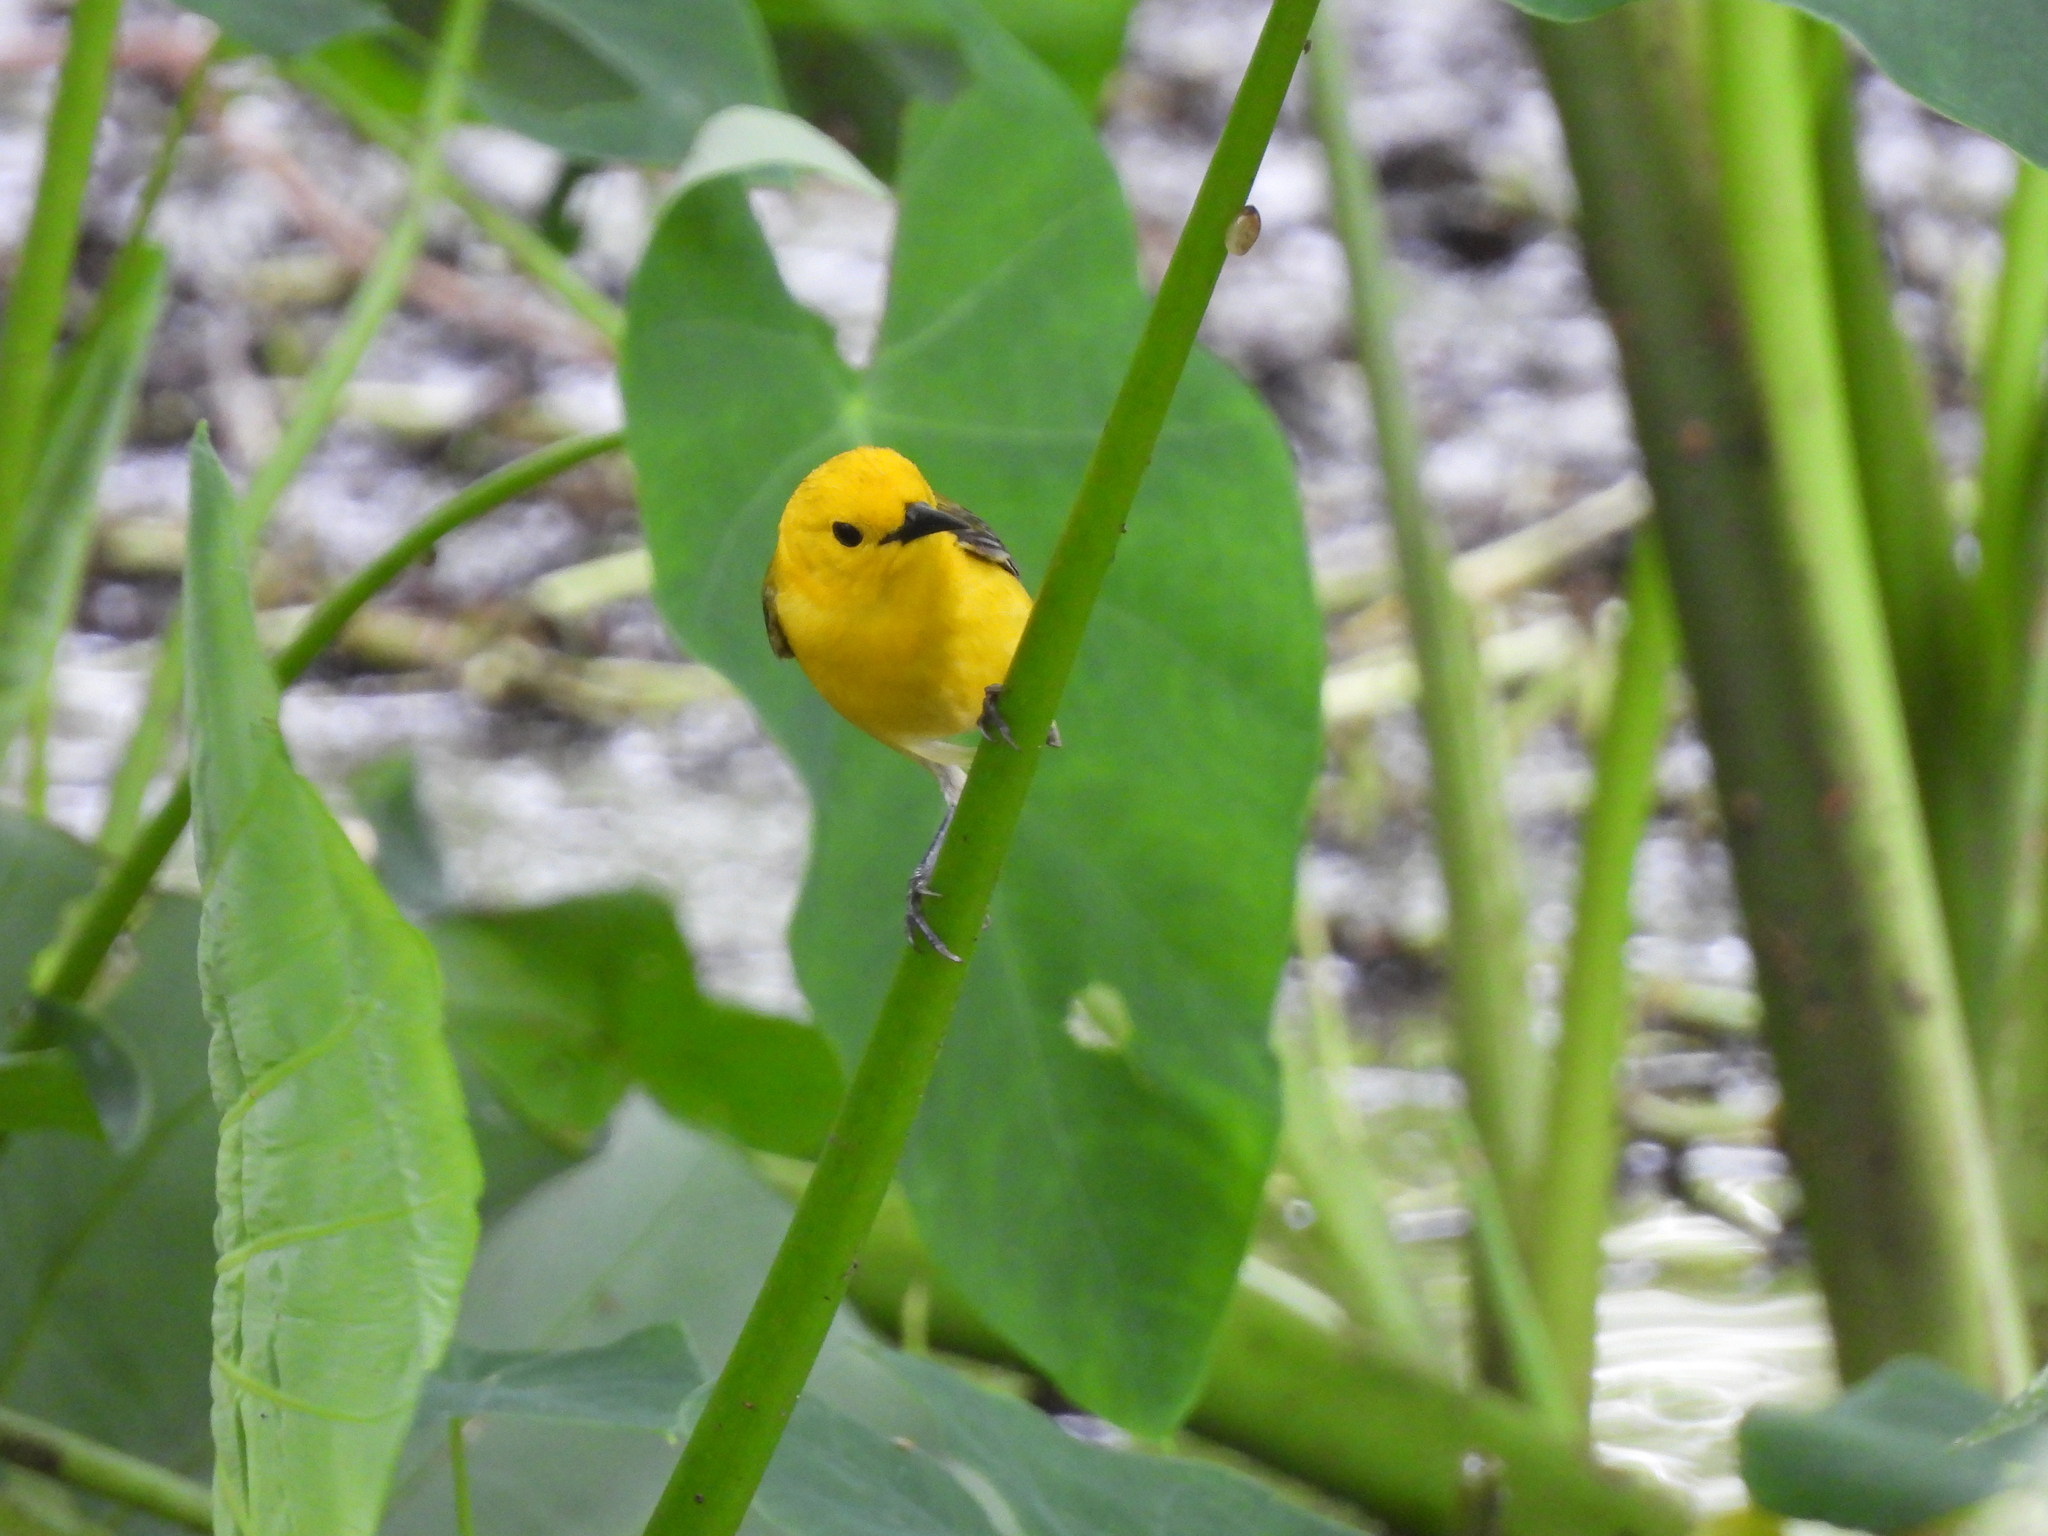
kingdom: Animalia
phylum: Chordata
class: Aves
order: Passeriformes
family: Parulidae
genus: Protonotaria
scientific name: Protonotaria citrea
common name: Prothonotary warbler
